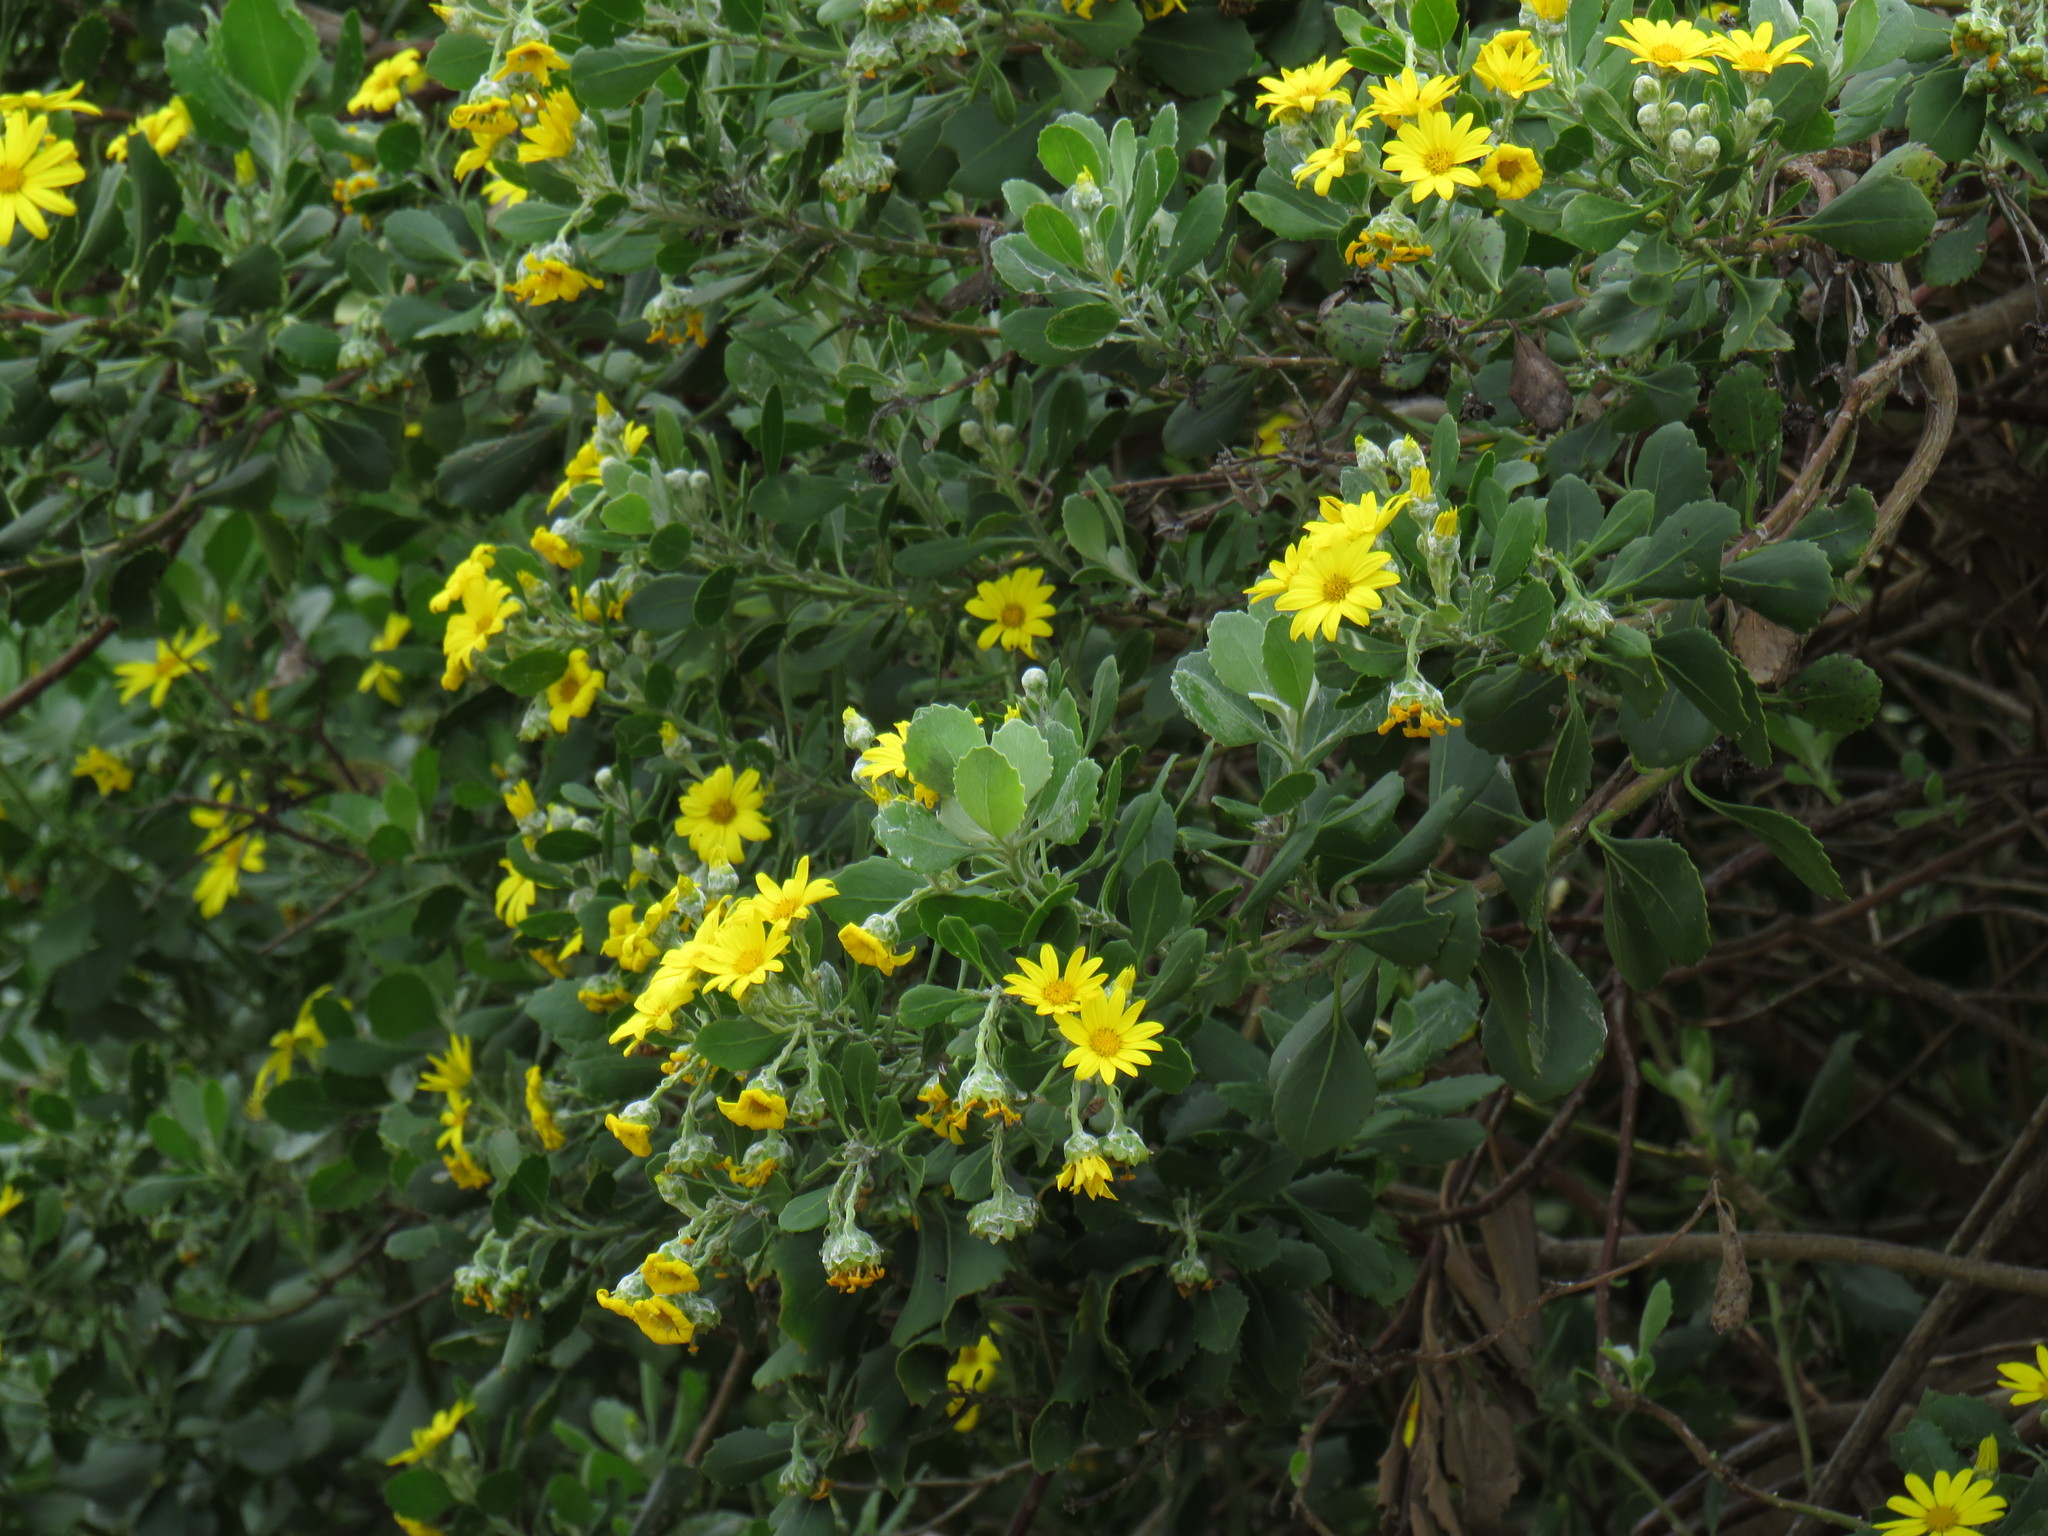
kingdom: Plantae
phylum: Tracheophyta
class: Magnoliopsida
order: Asterales
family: Asteraceae
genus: Osteospermum
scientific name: Osteospermum moniliferum
